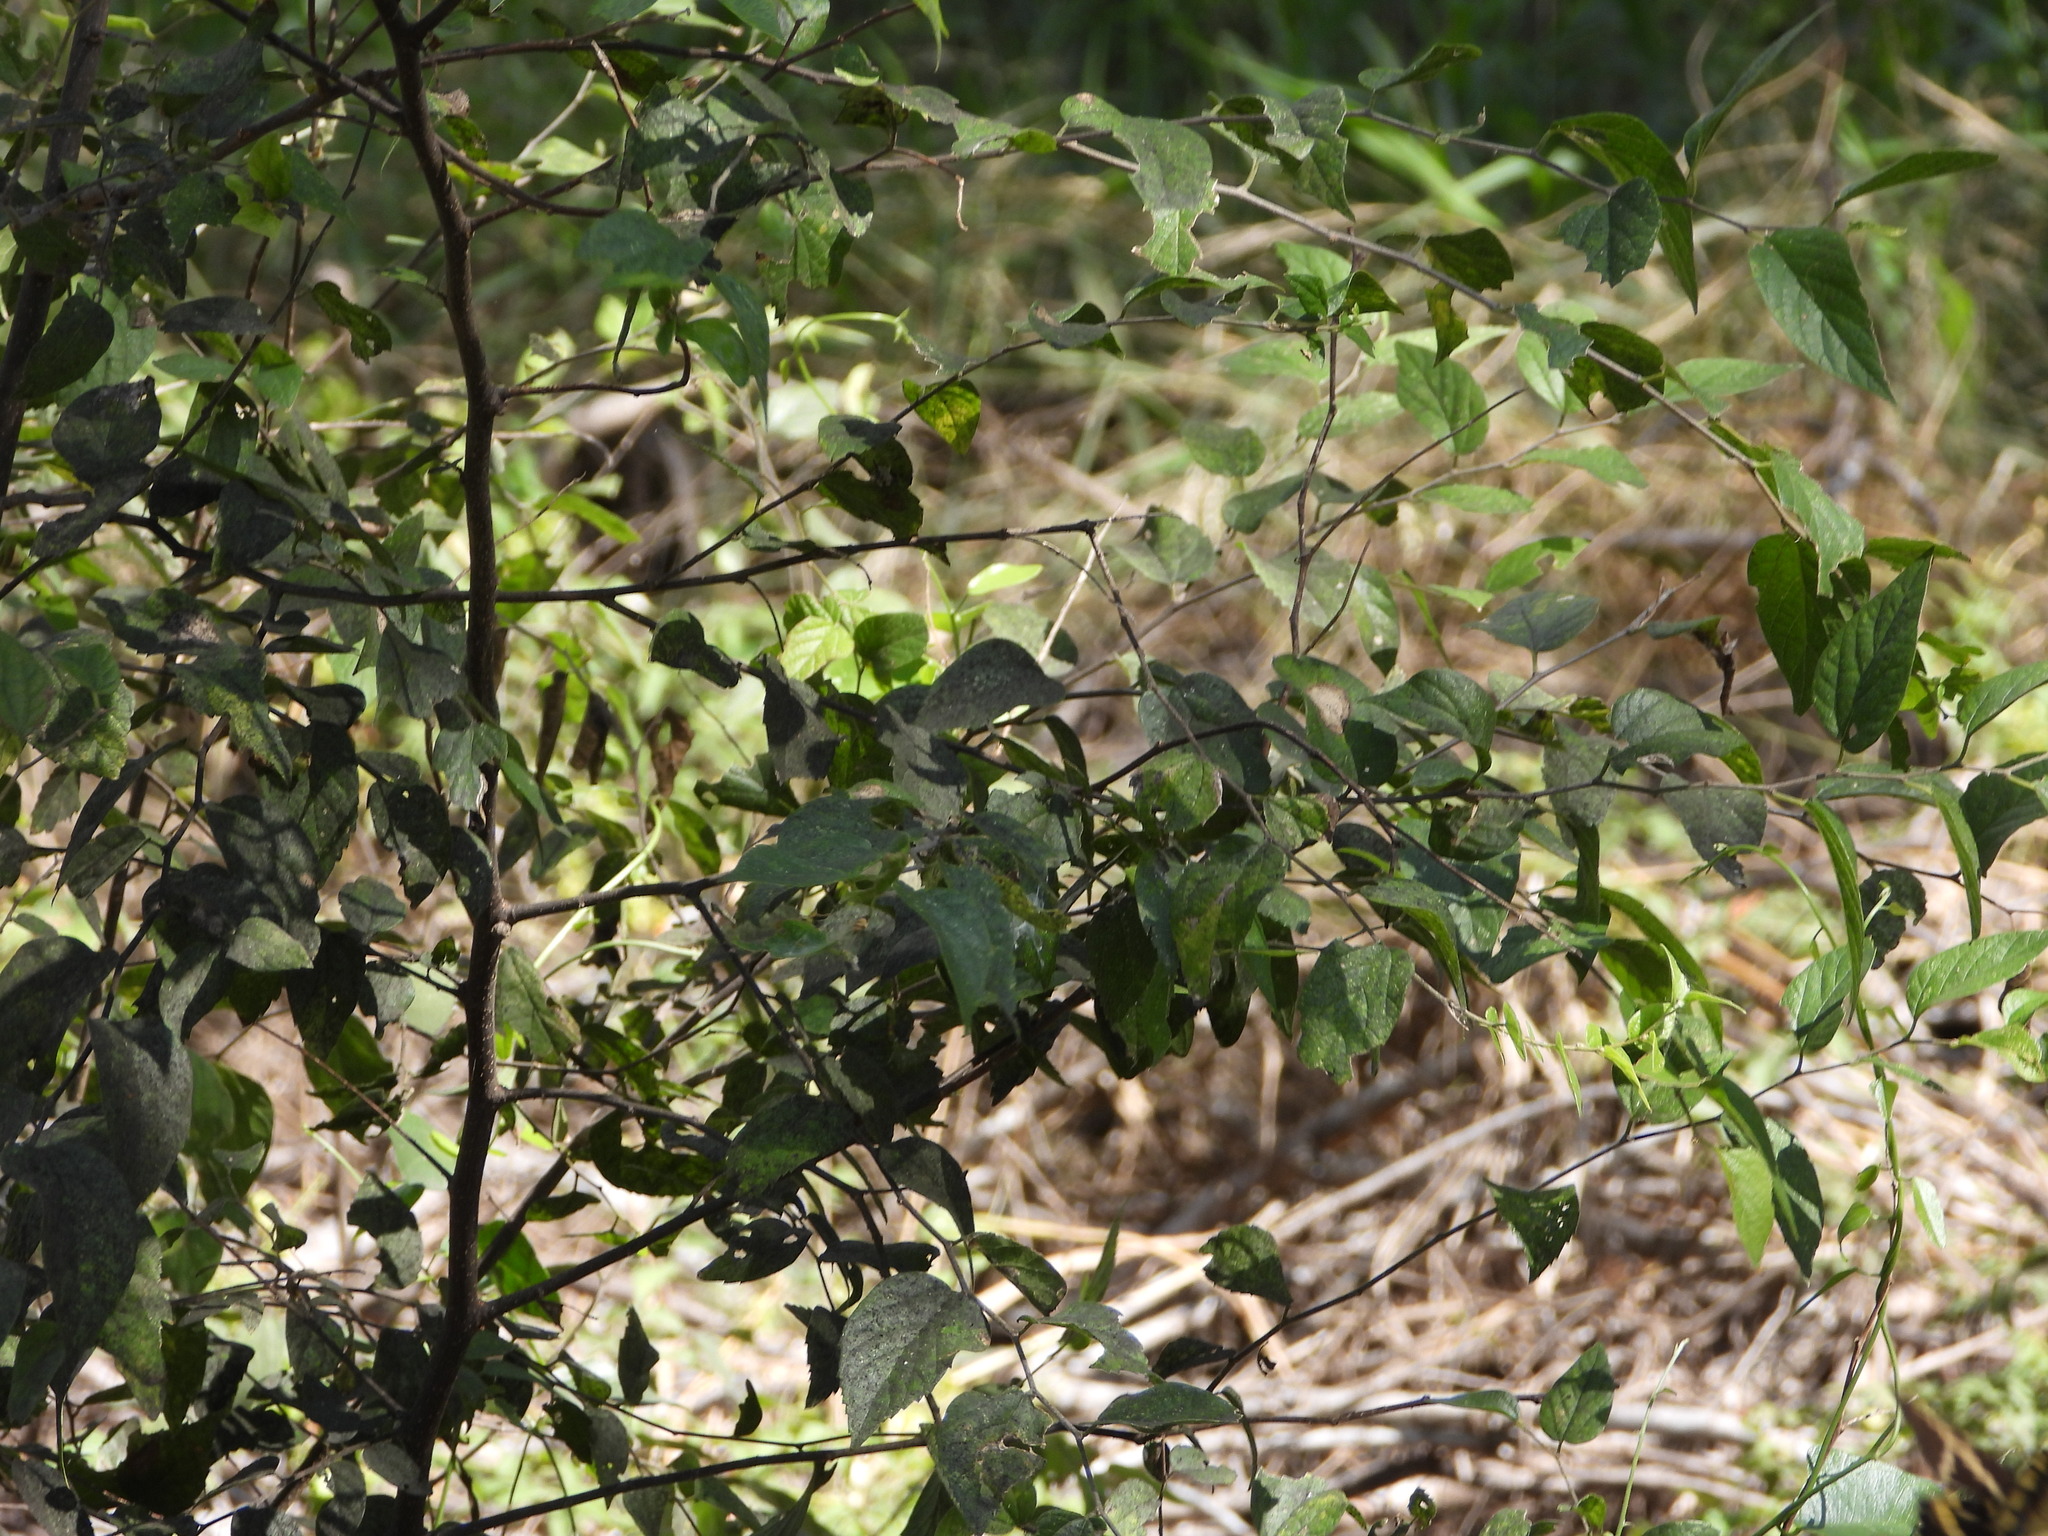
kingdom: Plantae
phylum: Tracheophyta
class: Magnoliopsida
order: Rosales
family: Cannabaceae
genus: Celtis
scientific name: Celtis laevigata
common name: Sugarberry
